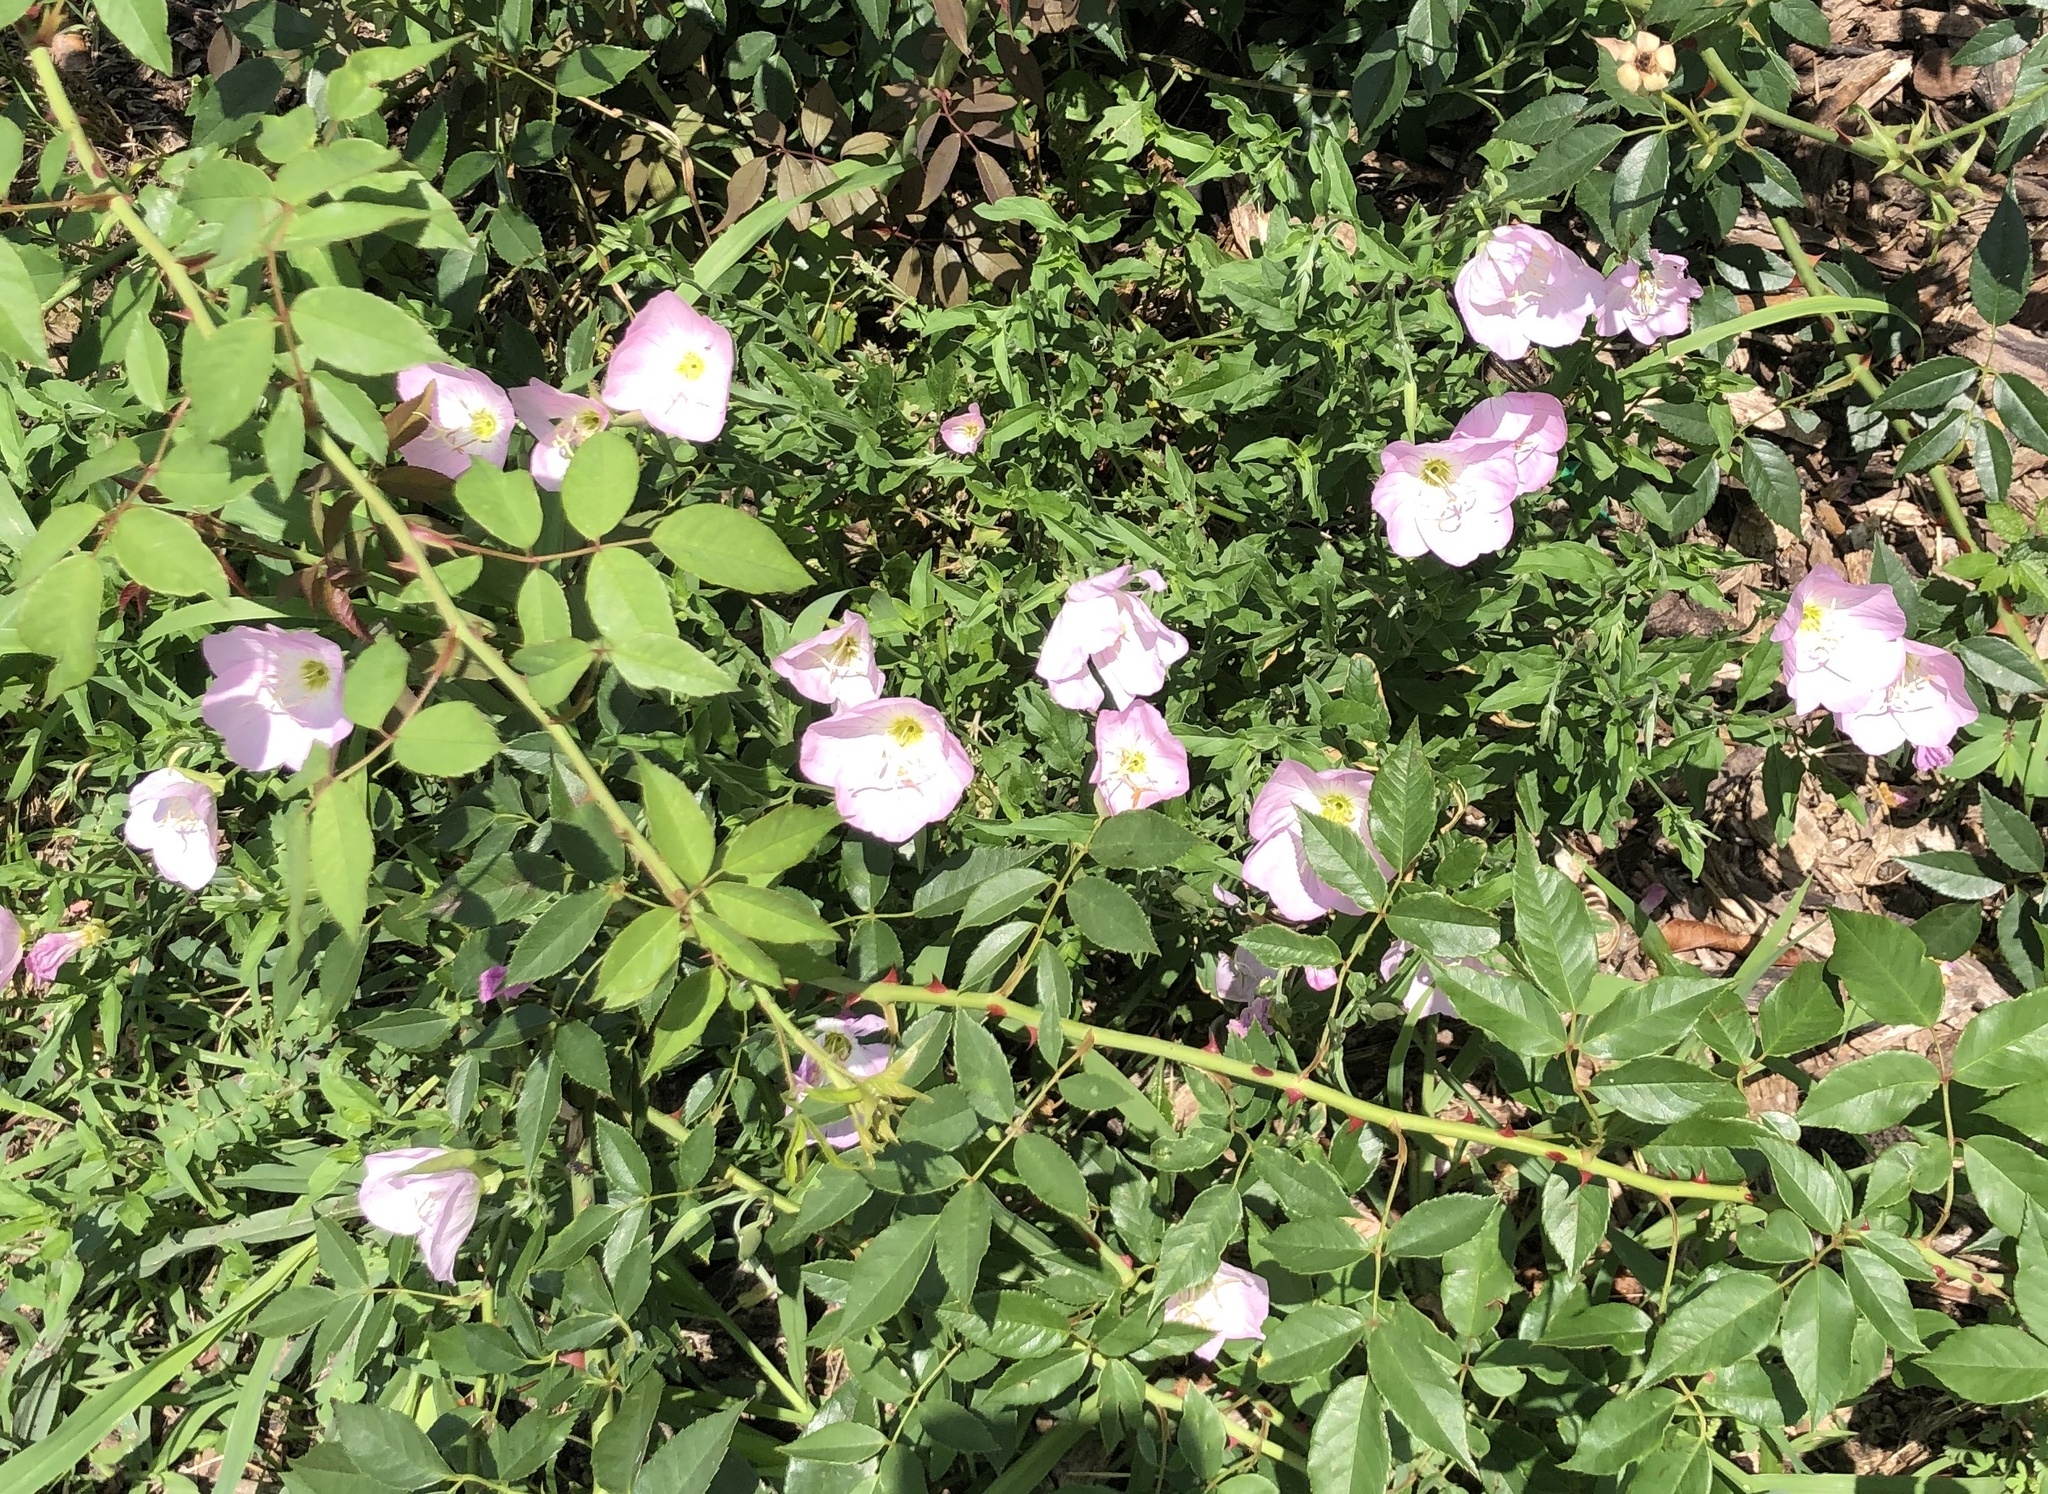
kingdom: Plantae
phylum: Tracheophyta
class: Magnoliopsida
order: Myrtales
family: Onagraceae
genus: Oenothera
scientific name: Oenothera speciosa
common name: White evening-primrose
